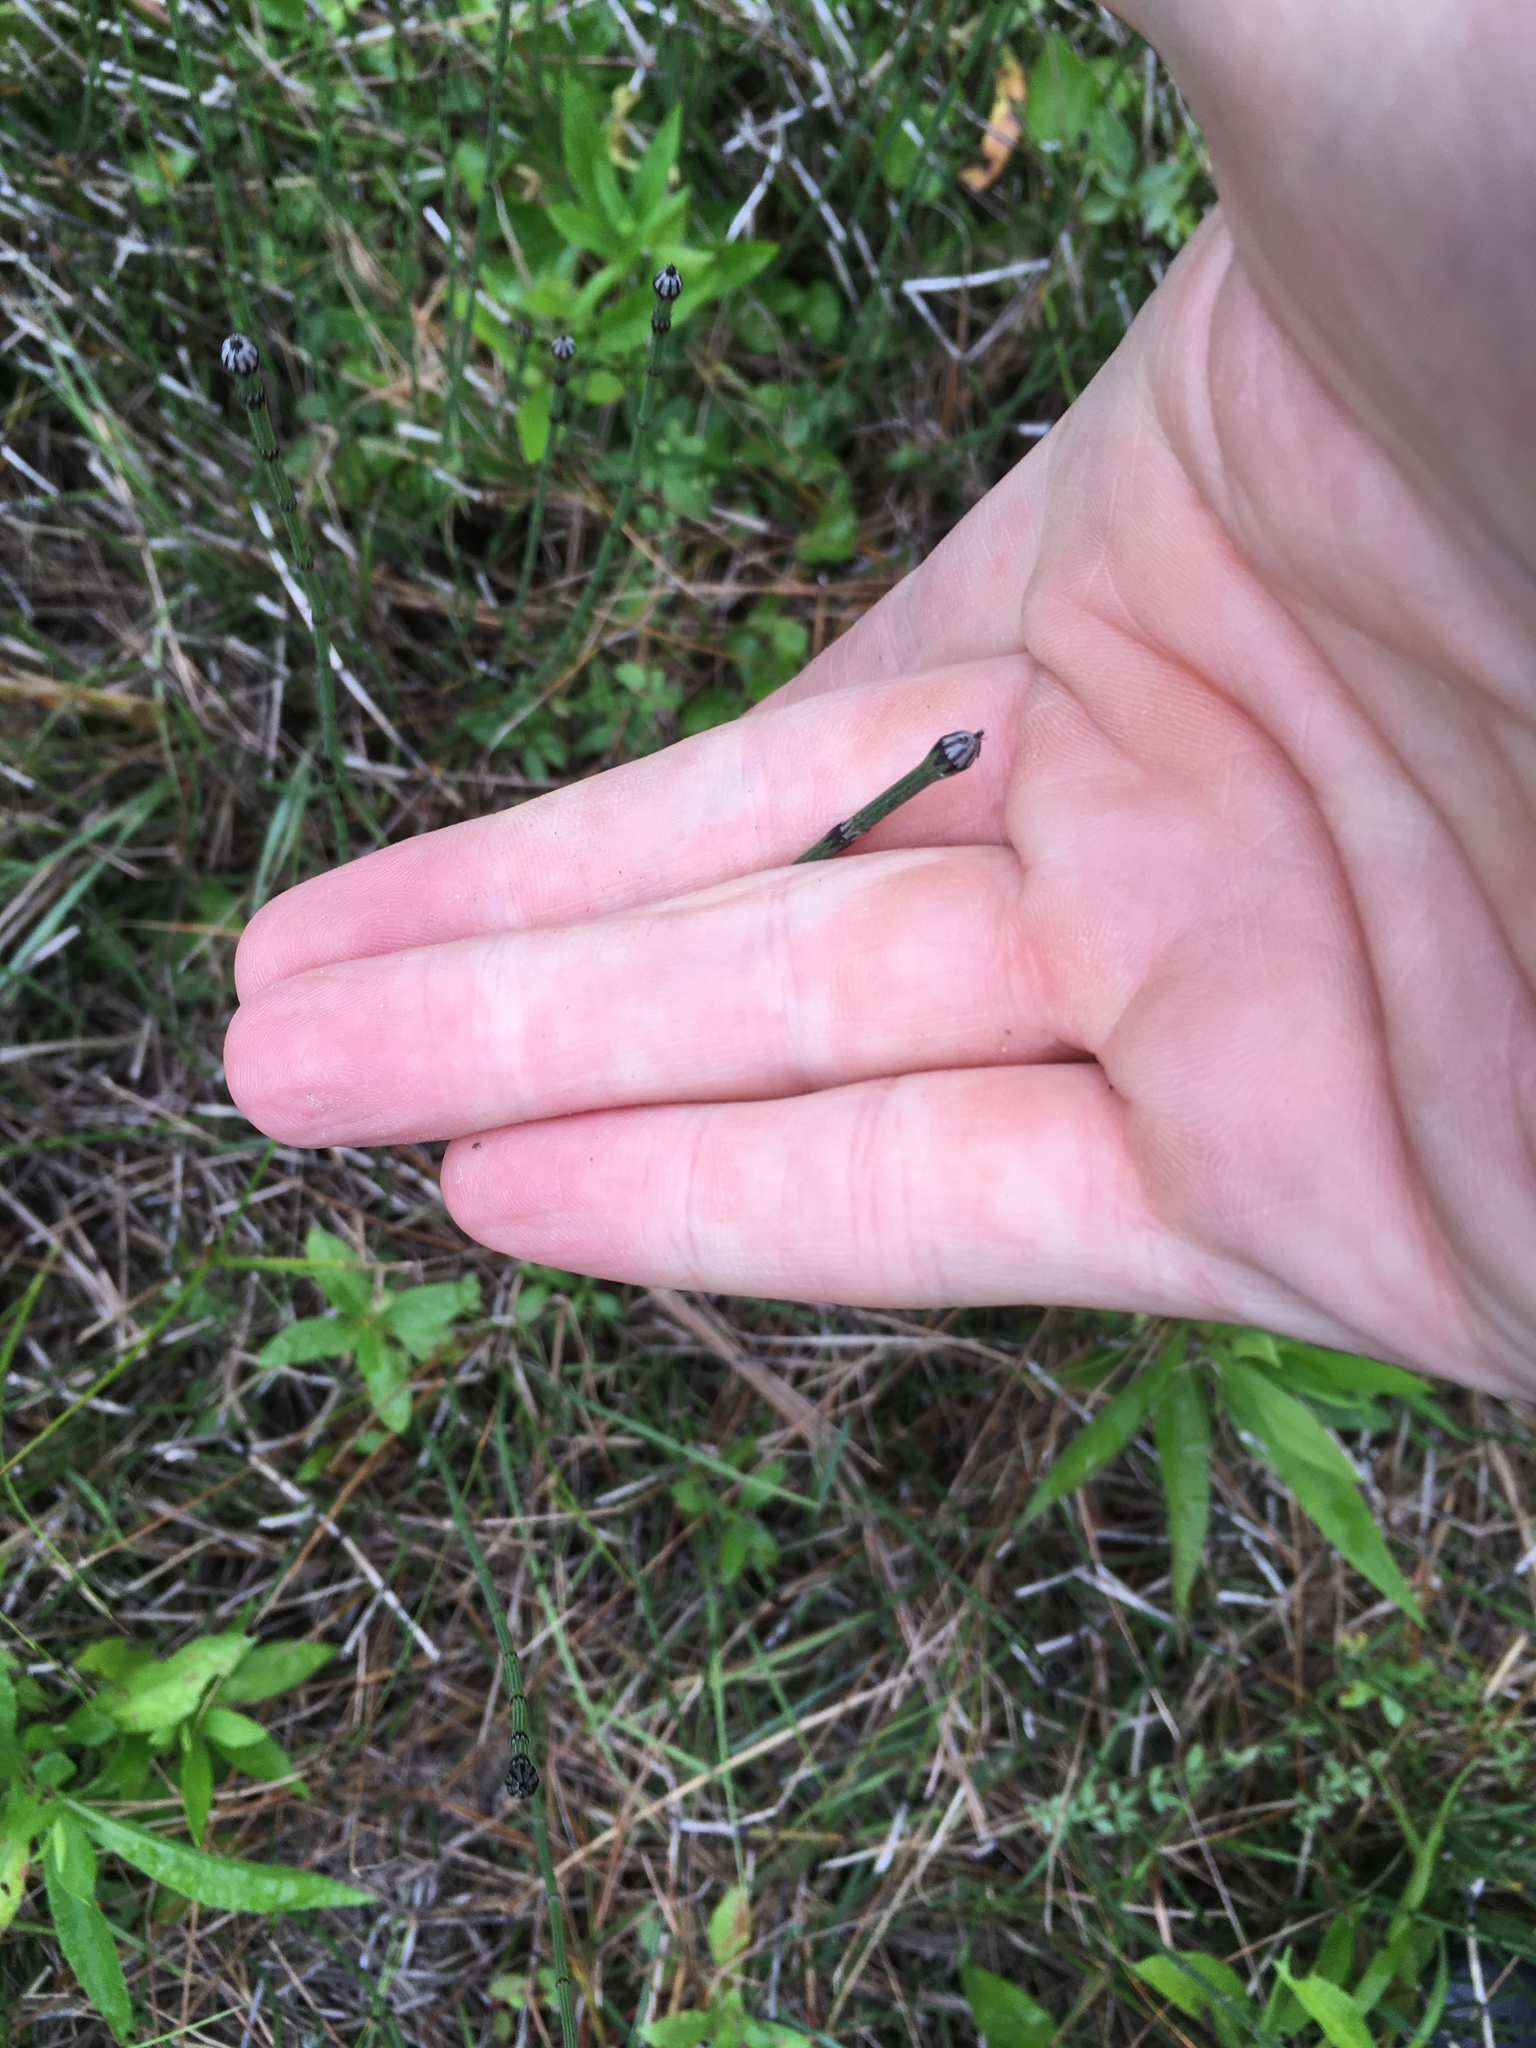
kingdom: Plantae
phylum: Tracheophyta
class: Polypodiopsida
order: Equisetales
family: Equisetaceae
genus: Equisetum
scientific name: Equisetum variegatum
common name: Variegated horsetail
